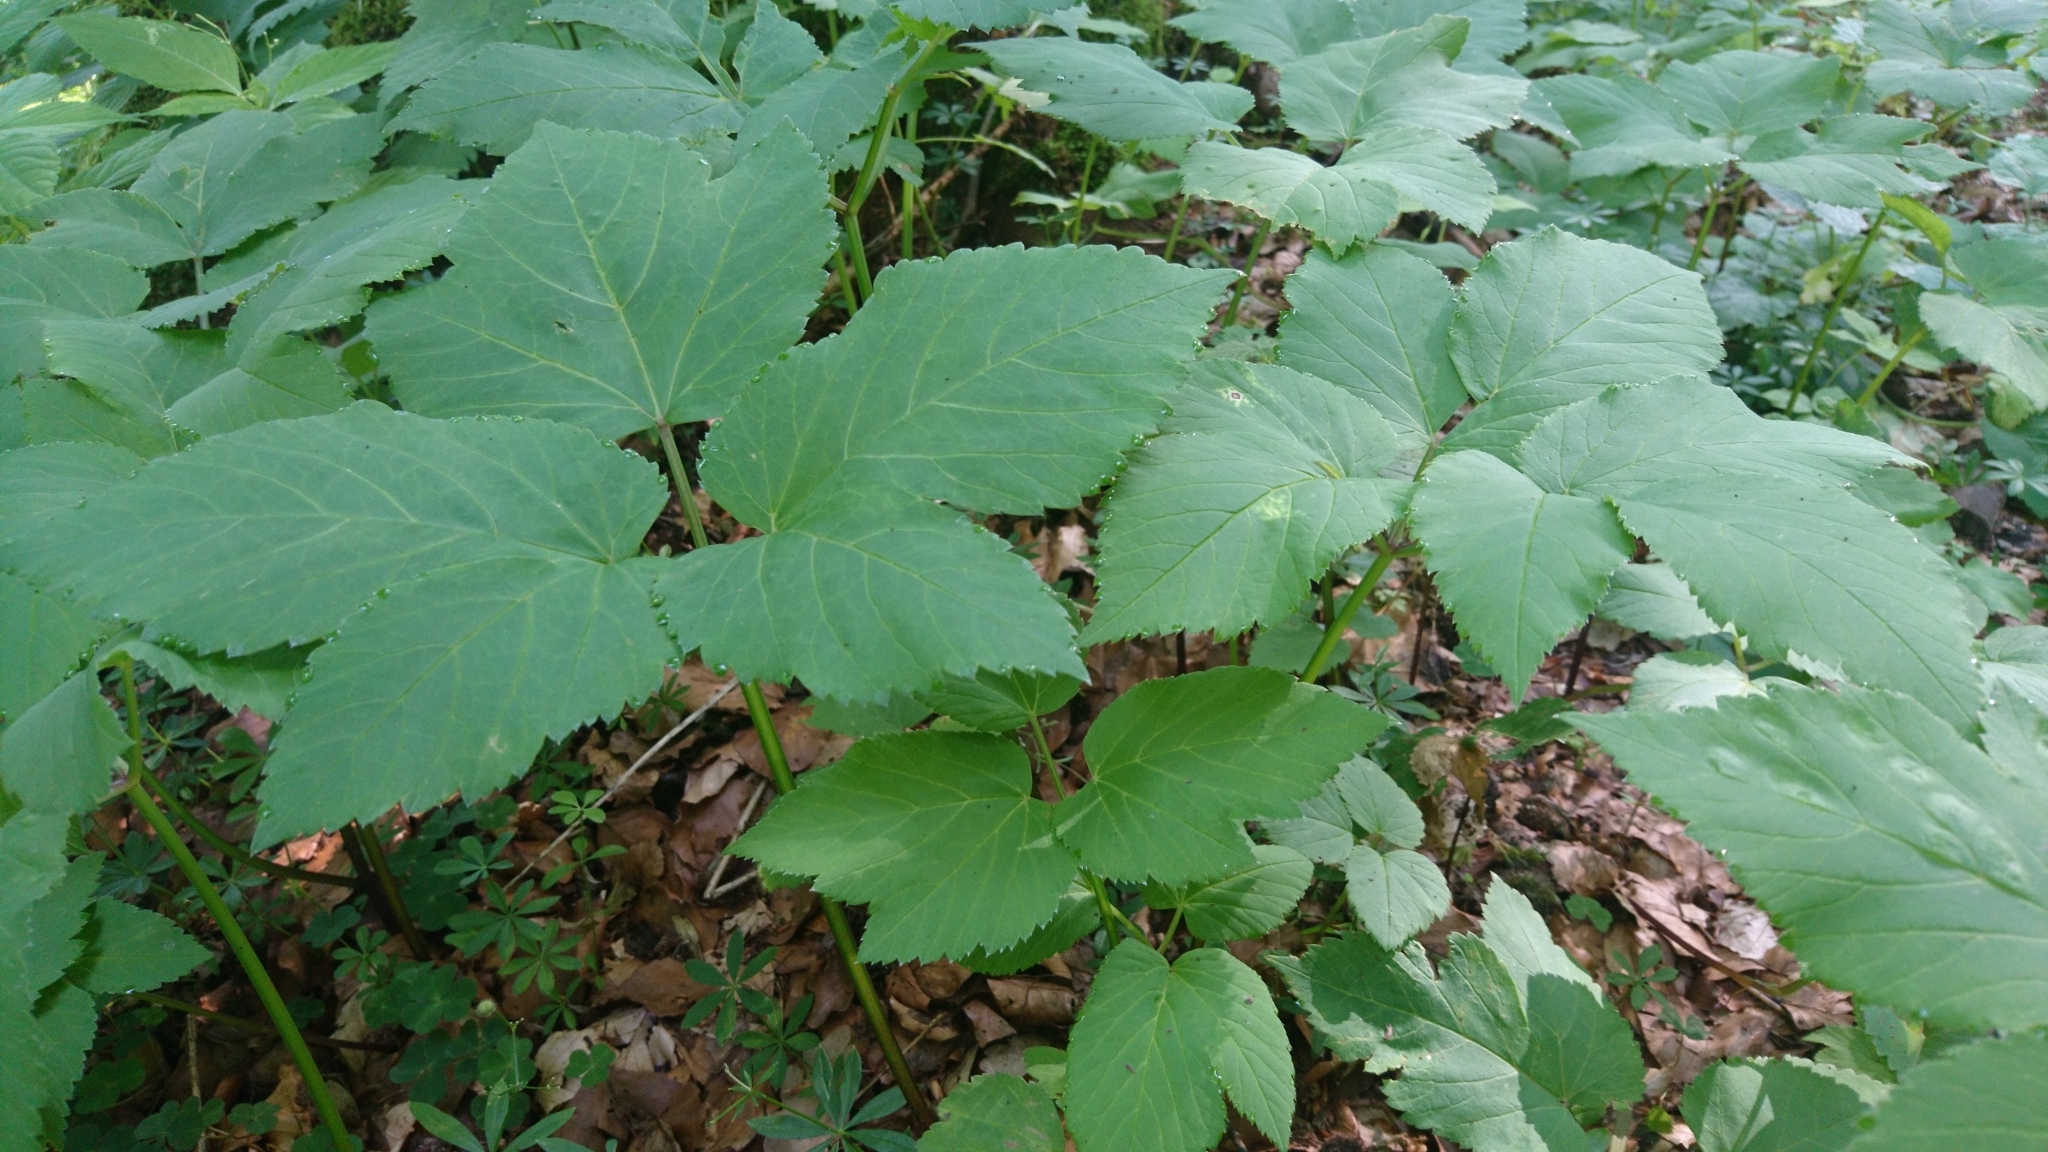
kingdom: Plantae
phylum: Tracheophyta
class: Magnoliopsida
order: Apiales
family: Apiaceae
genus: Aegopodium
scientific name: Aegopodium podagraria
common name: Ground-elder
